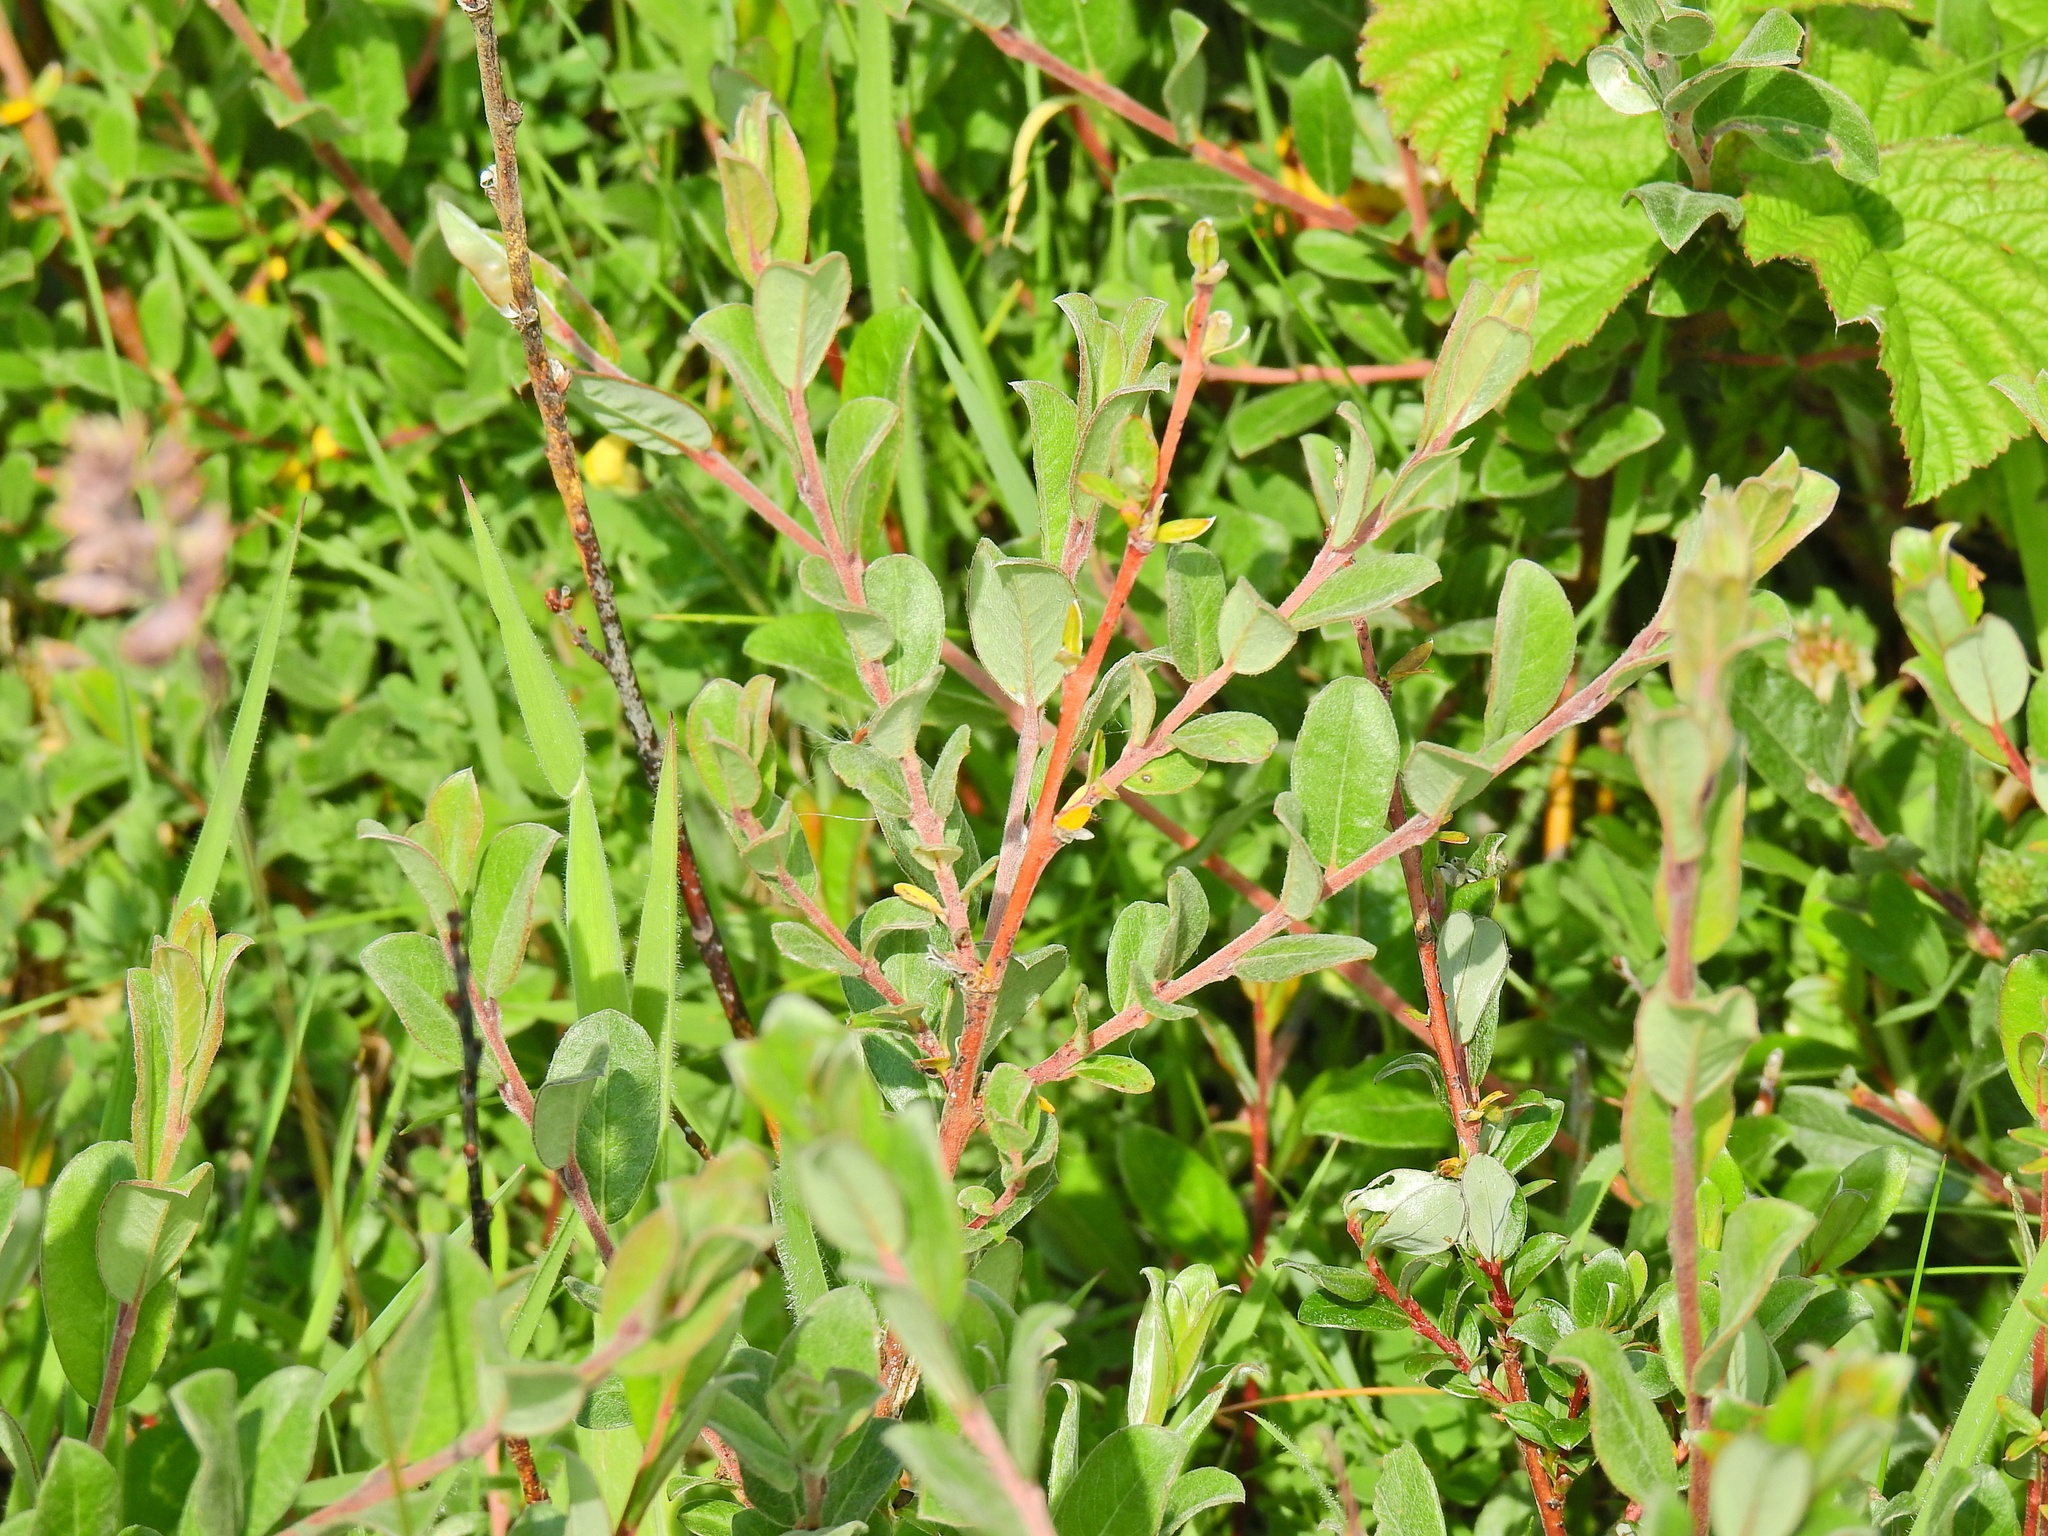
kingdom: Plantae
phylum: Tracheophyta
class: Magnoliopsida
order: Malpighiales
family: Salicaceae
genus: Salix
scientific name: Salix repens
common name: Creeping willow
